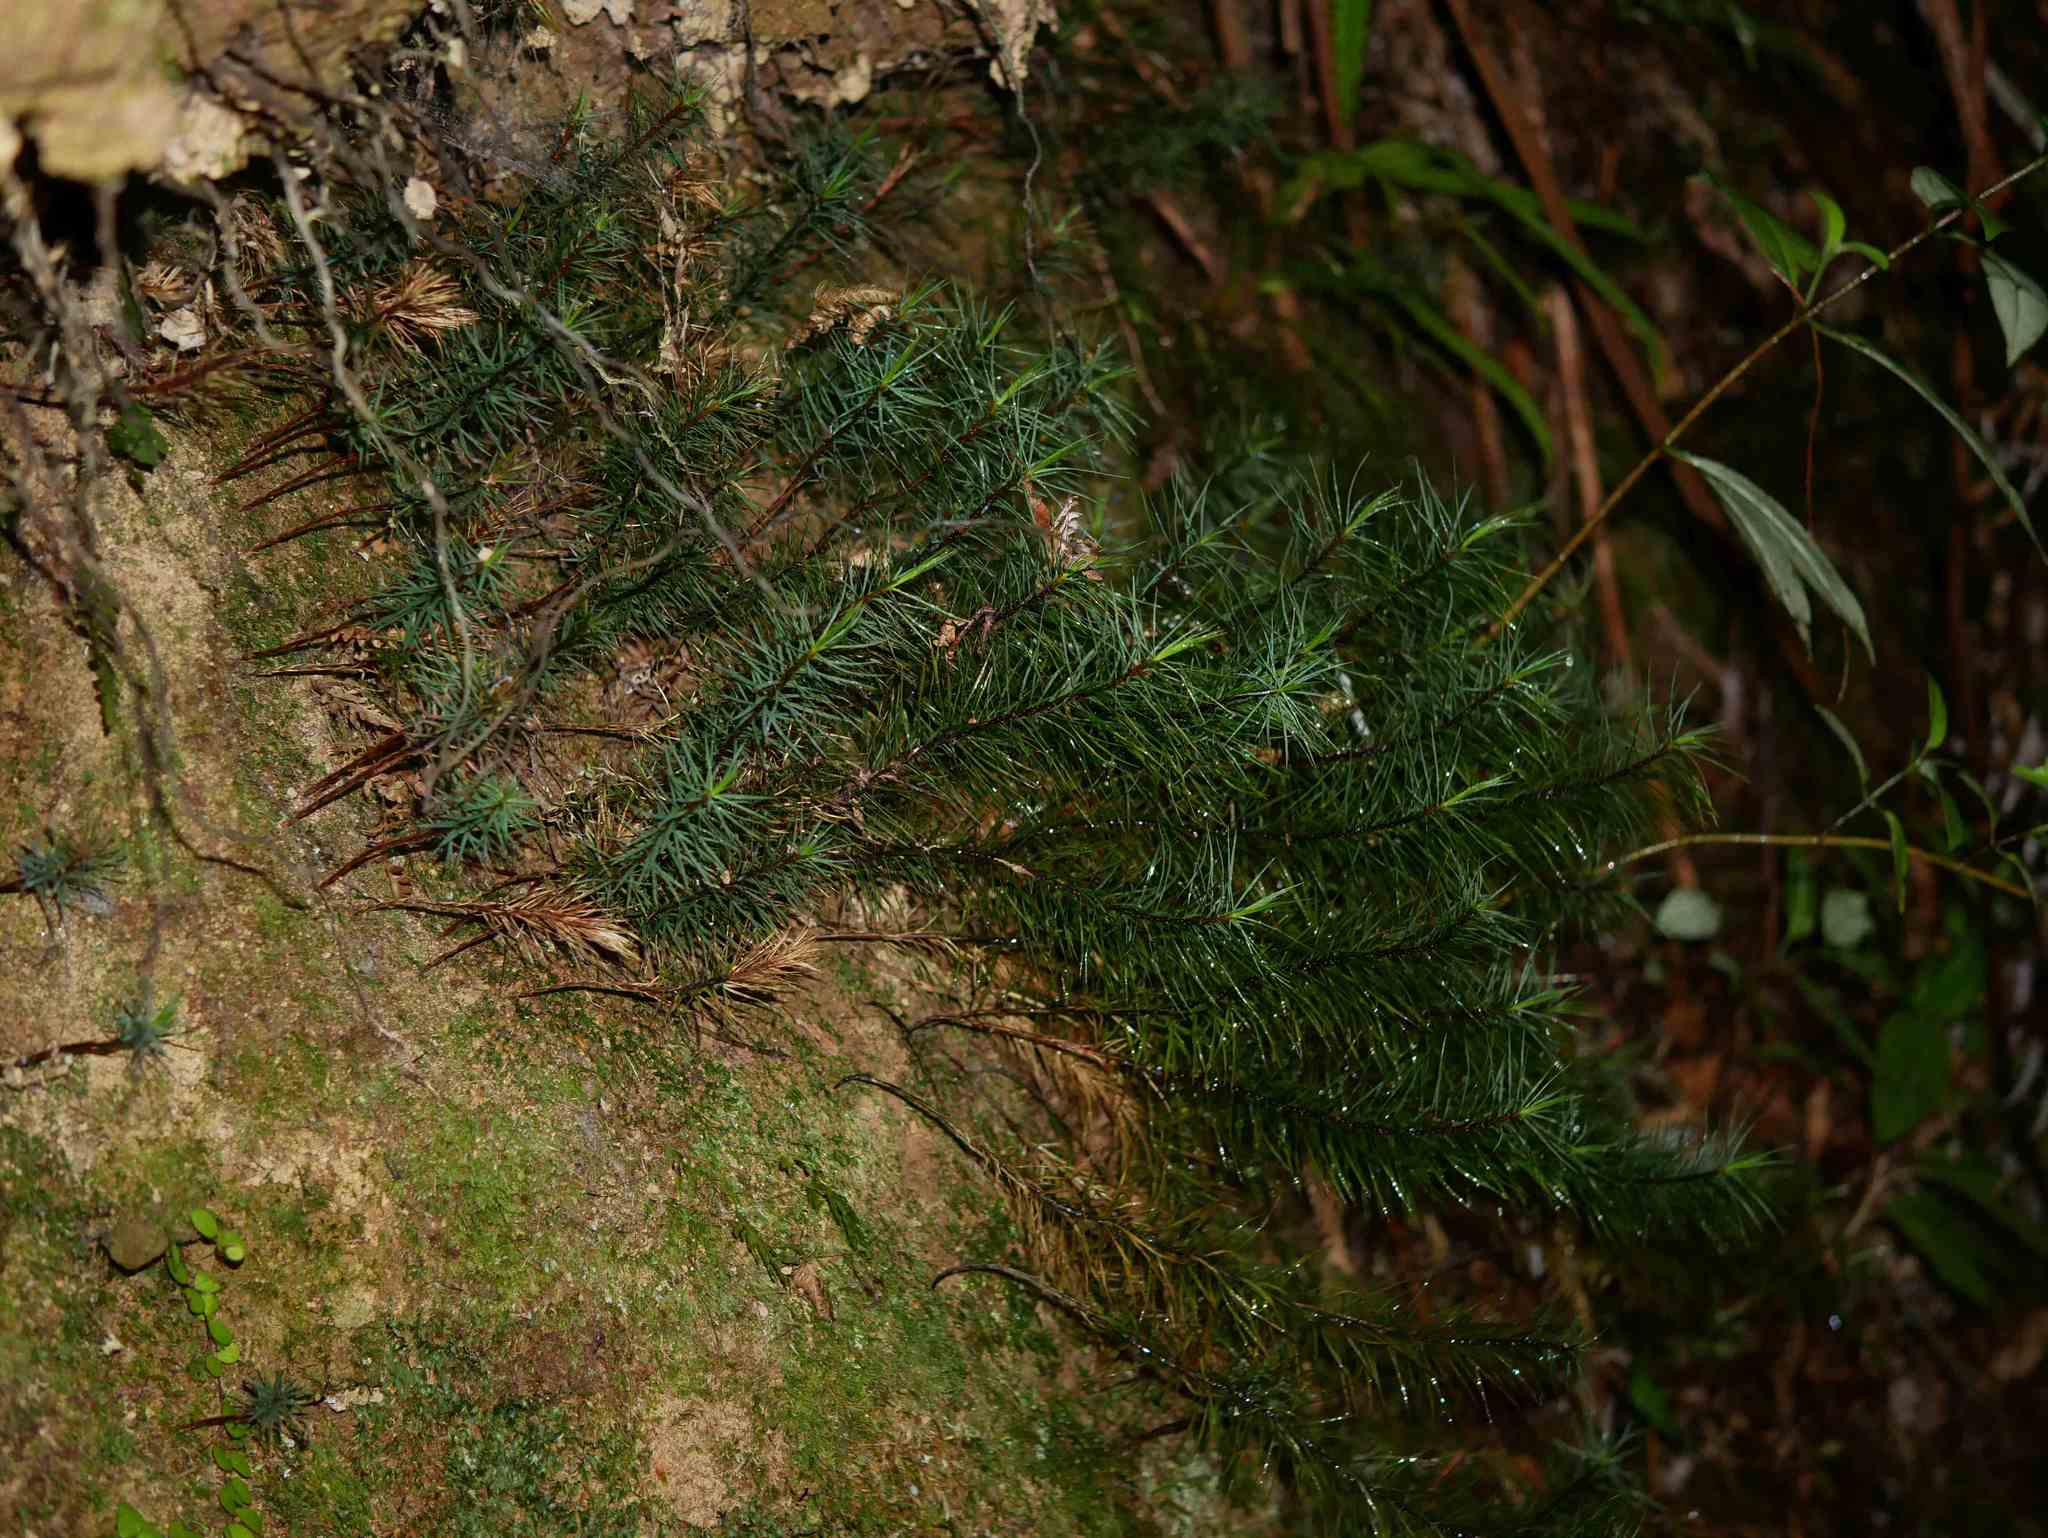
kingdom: Plantae
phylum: Bryophyta
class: Polytrichopsida
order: Polytrichales
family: Polytrichaceae
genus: Dawsonia
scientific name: Dawsonia superba
